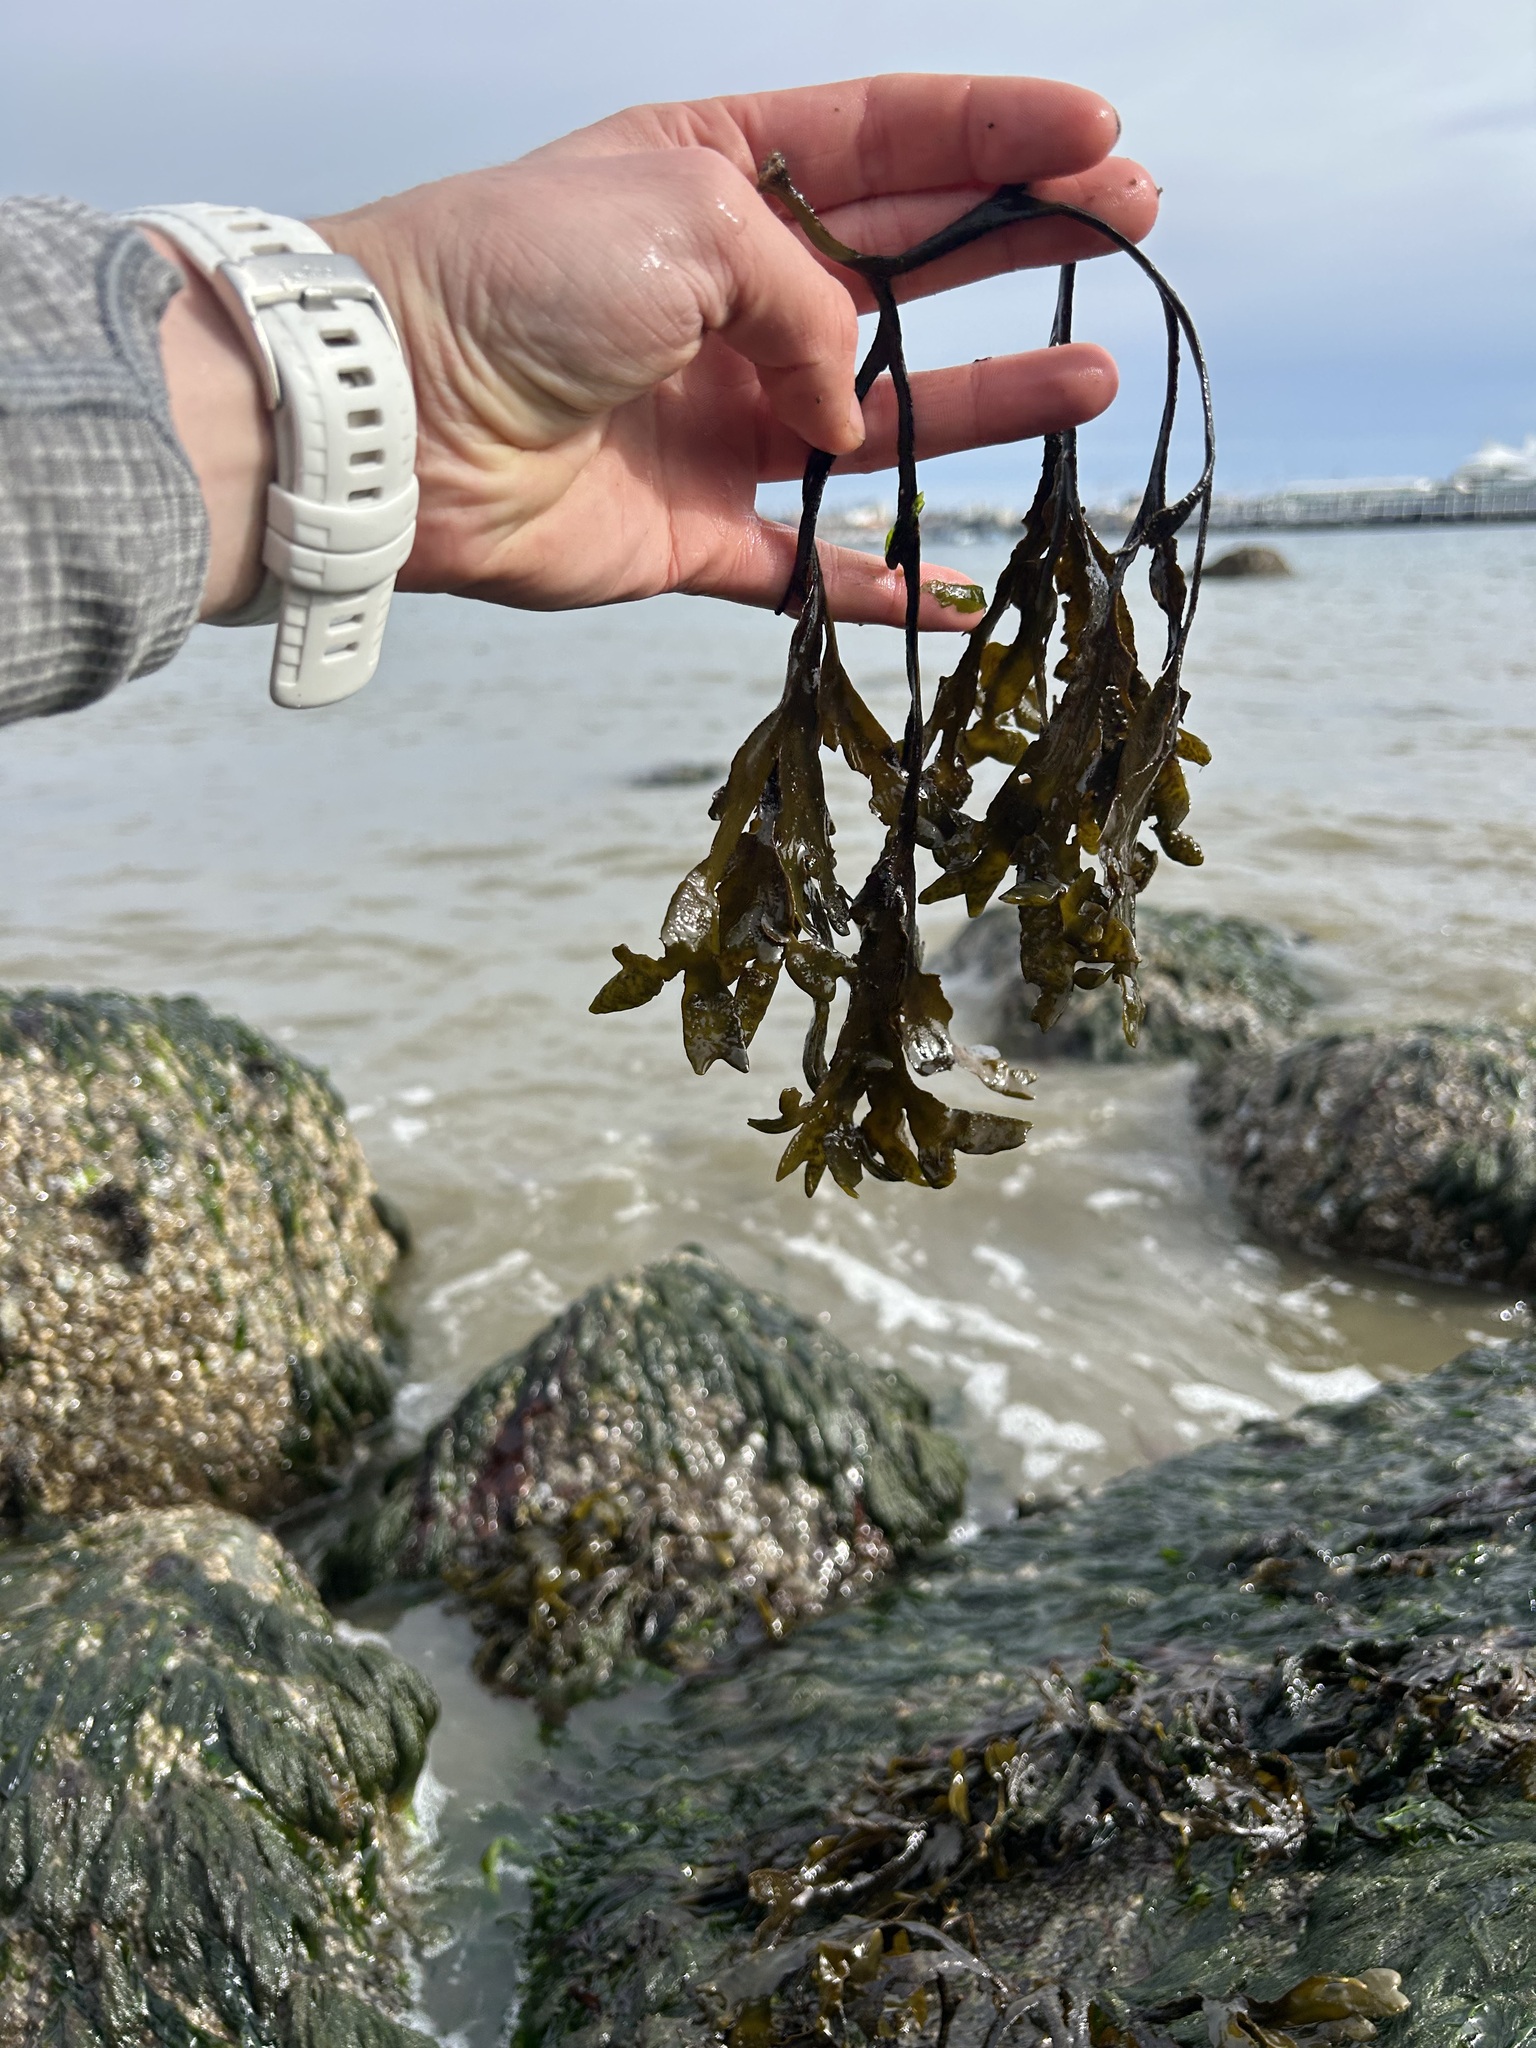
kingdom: Chromista
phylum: Ochrophyta
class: Phaeophyceae
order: Fucales
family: Fucaceae
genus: Fucus
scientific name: Fucus distichus
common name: Rockweed
